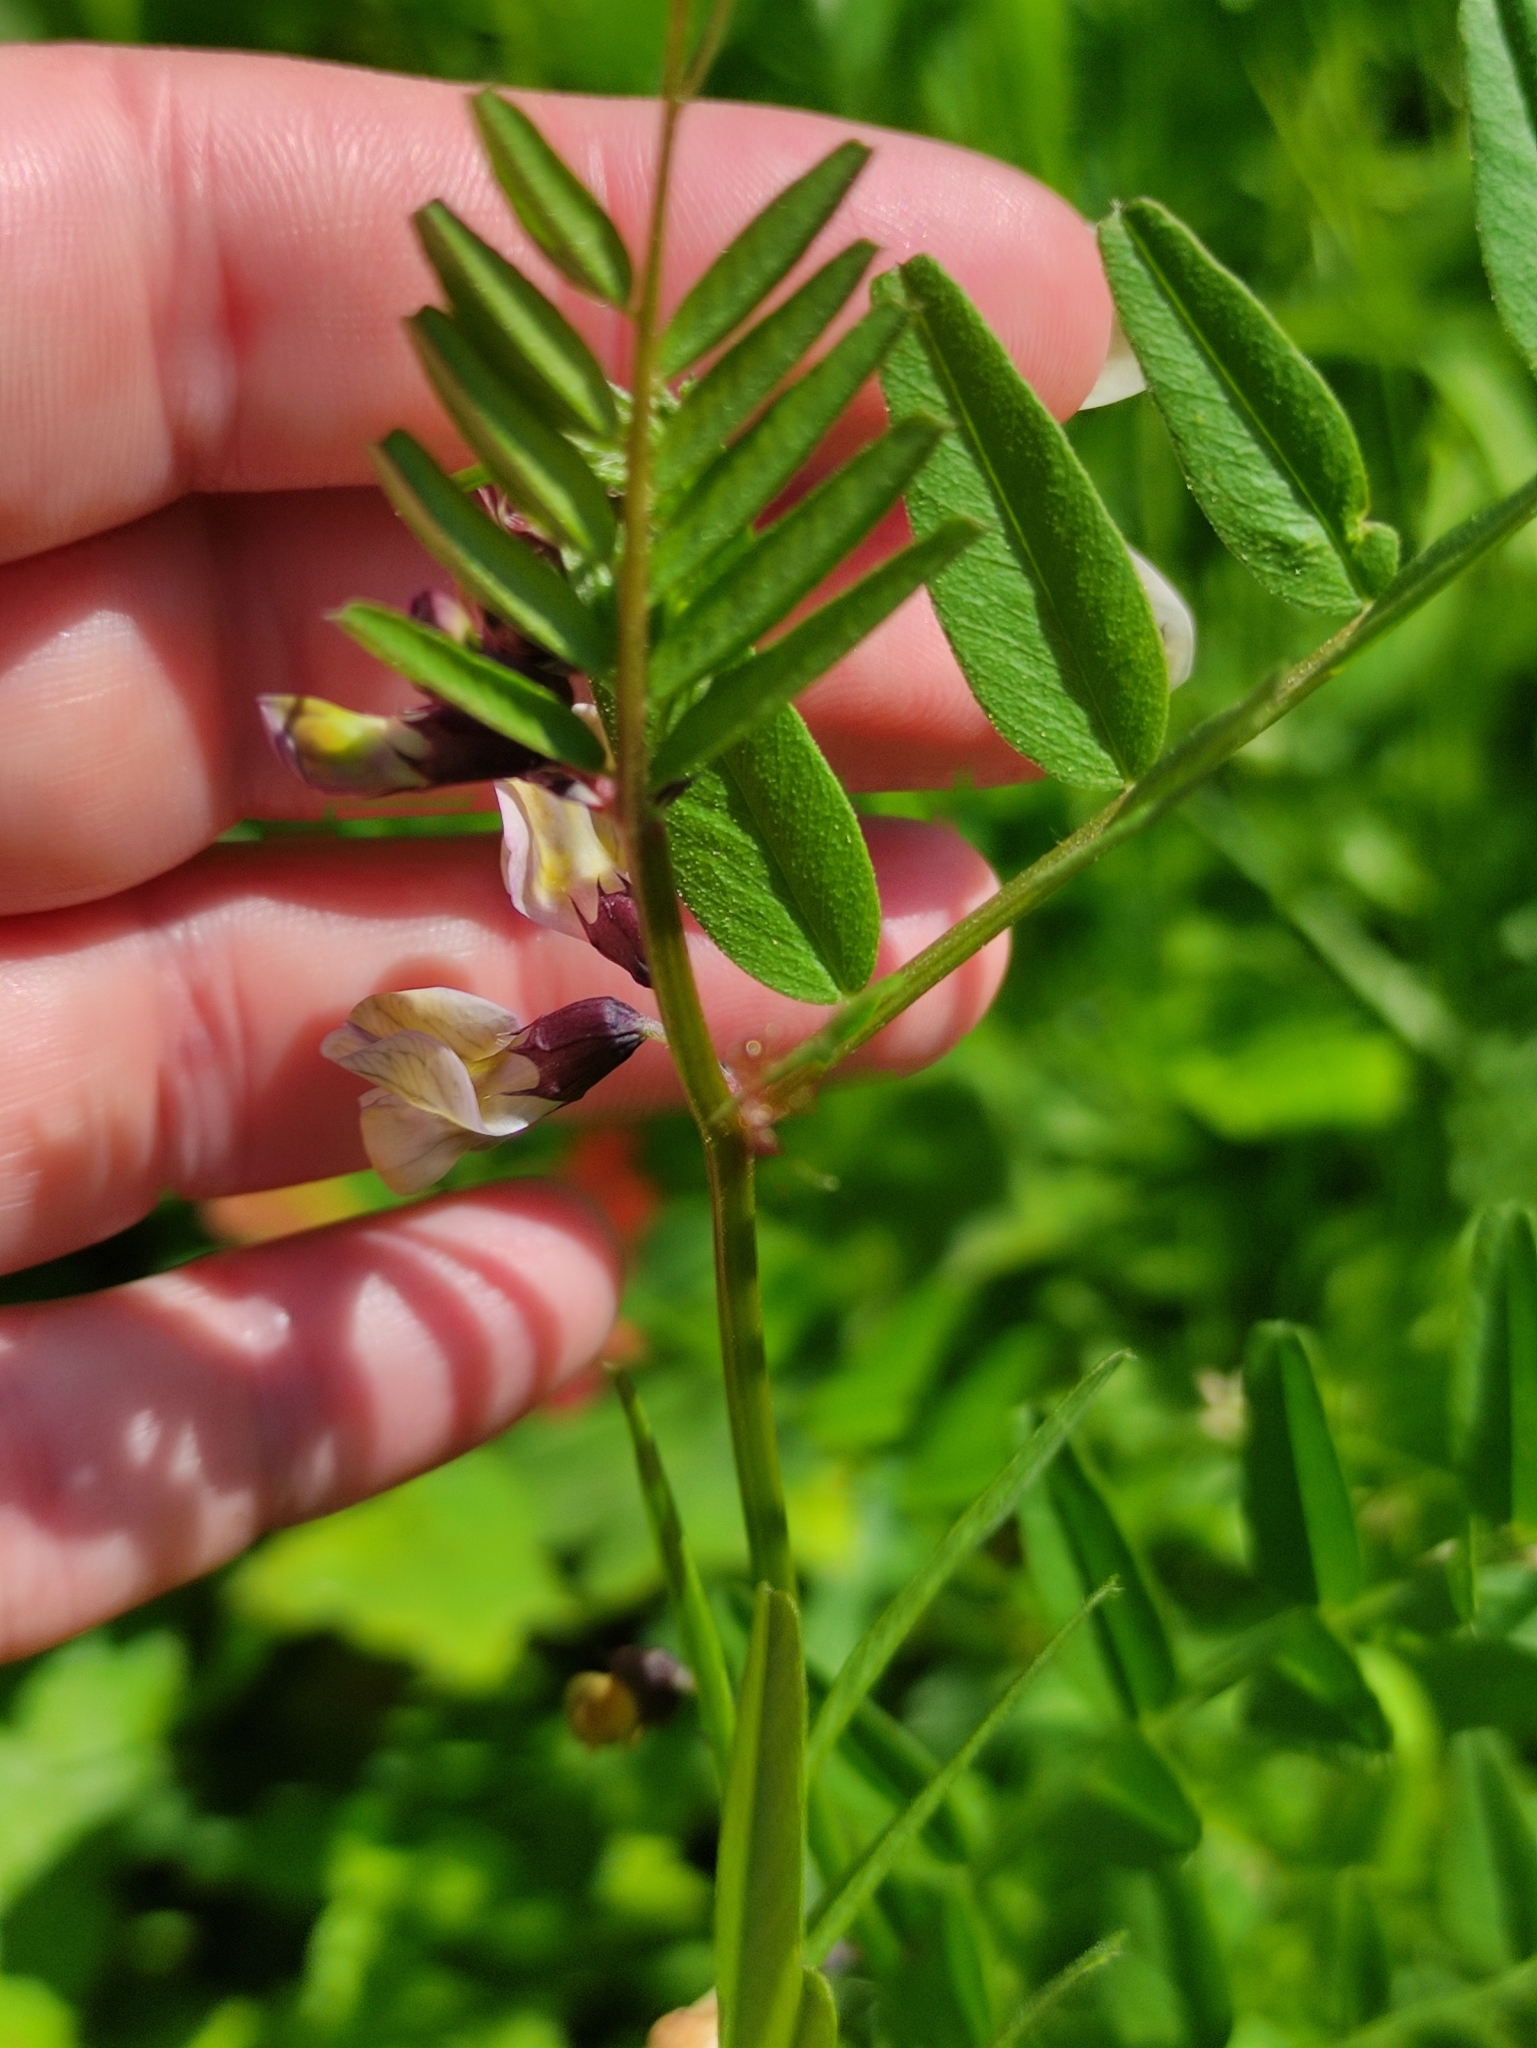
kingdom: Plantae
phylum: Tracheophyta
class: Magnoliopsida
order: Fabales
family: Fabaceae
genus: Vicia
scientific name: Vicia sepium
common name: Bush vetch
